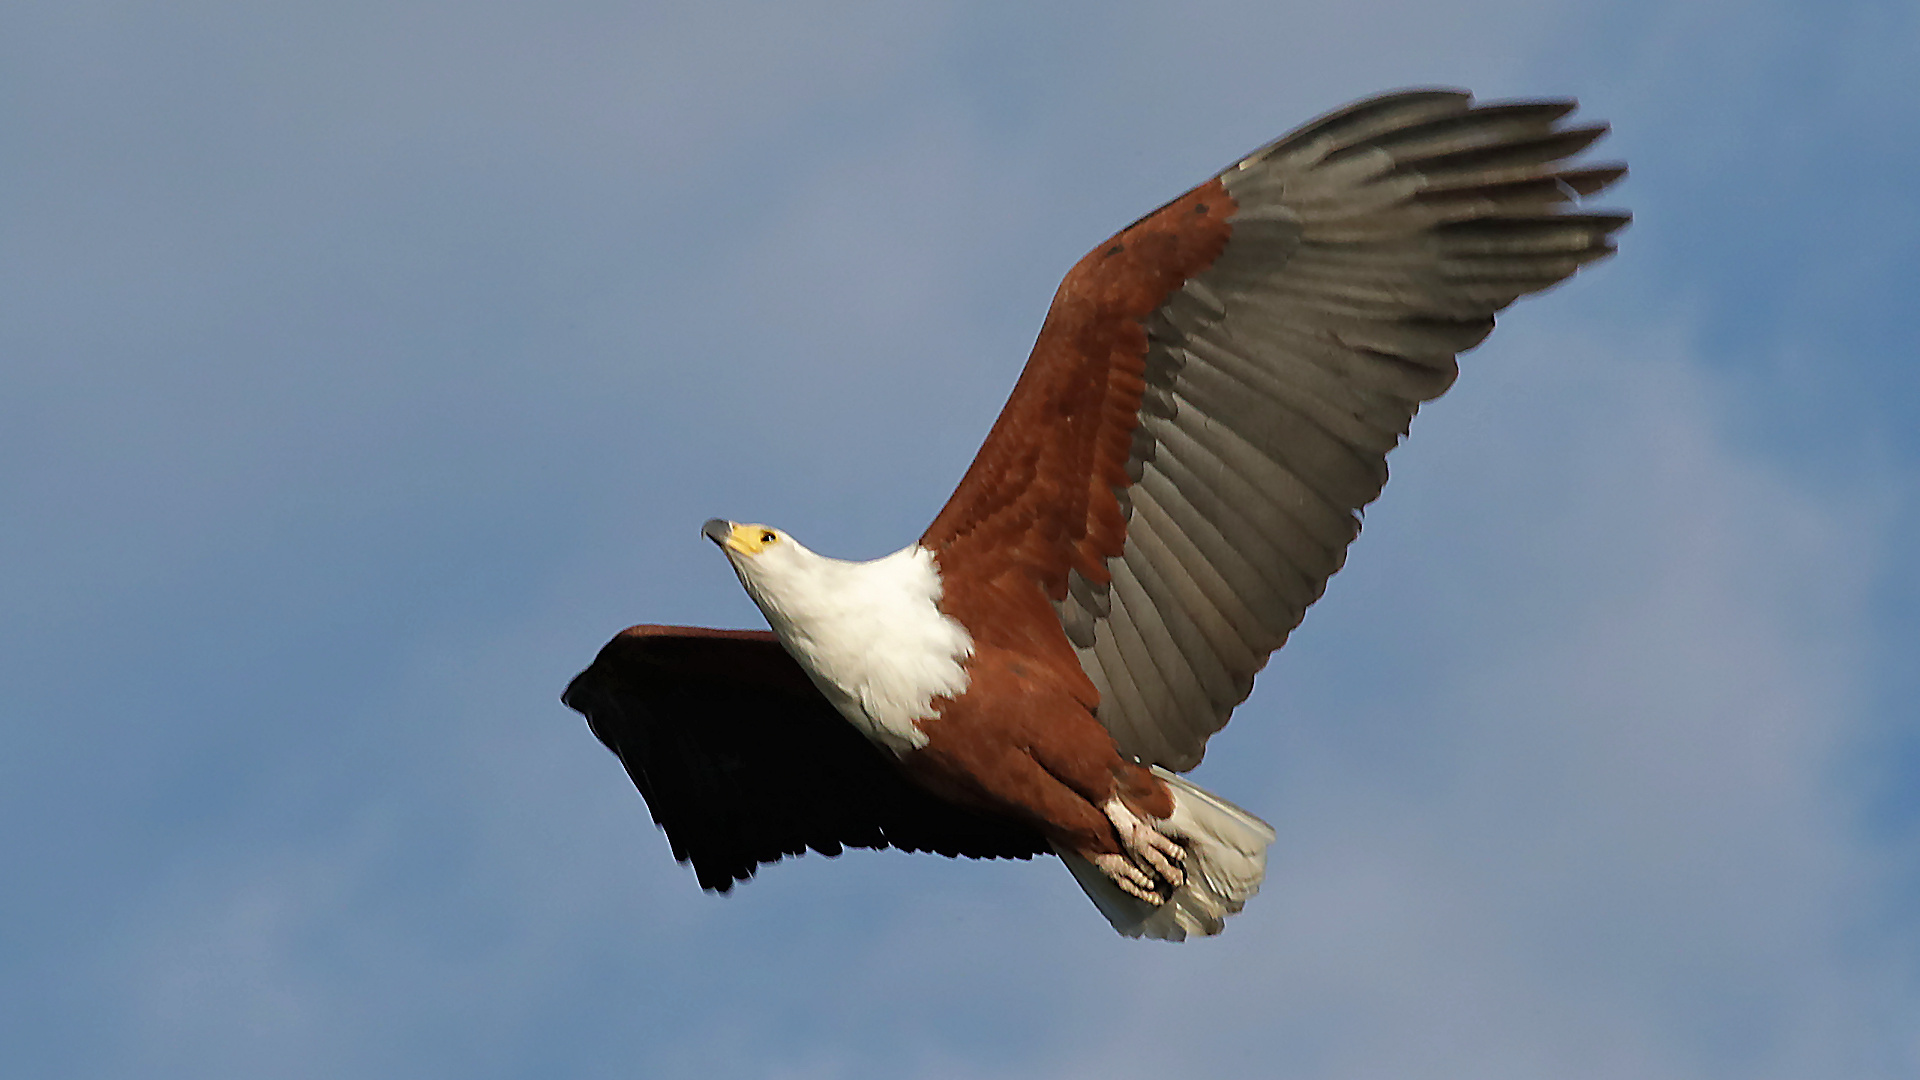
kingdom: Animalia
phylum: Chordata
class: Aves
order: Accipitriformes
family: Accipitridae
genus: Haliaeetus
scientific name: Haliaeetus vocifer
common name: African fish eagle
